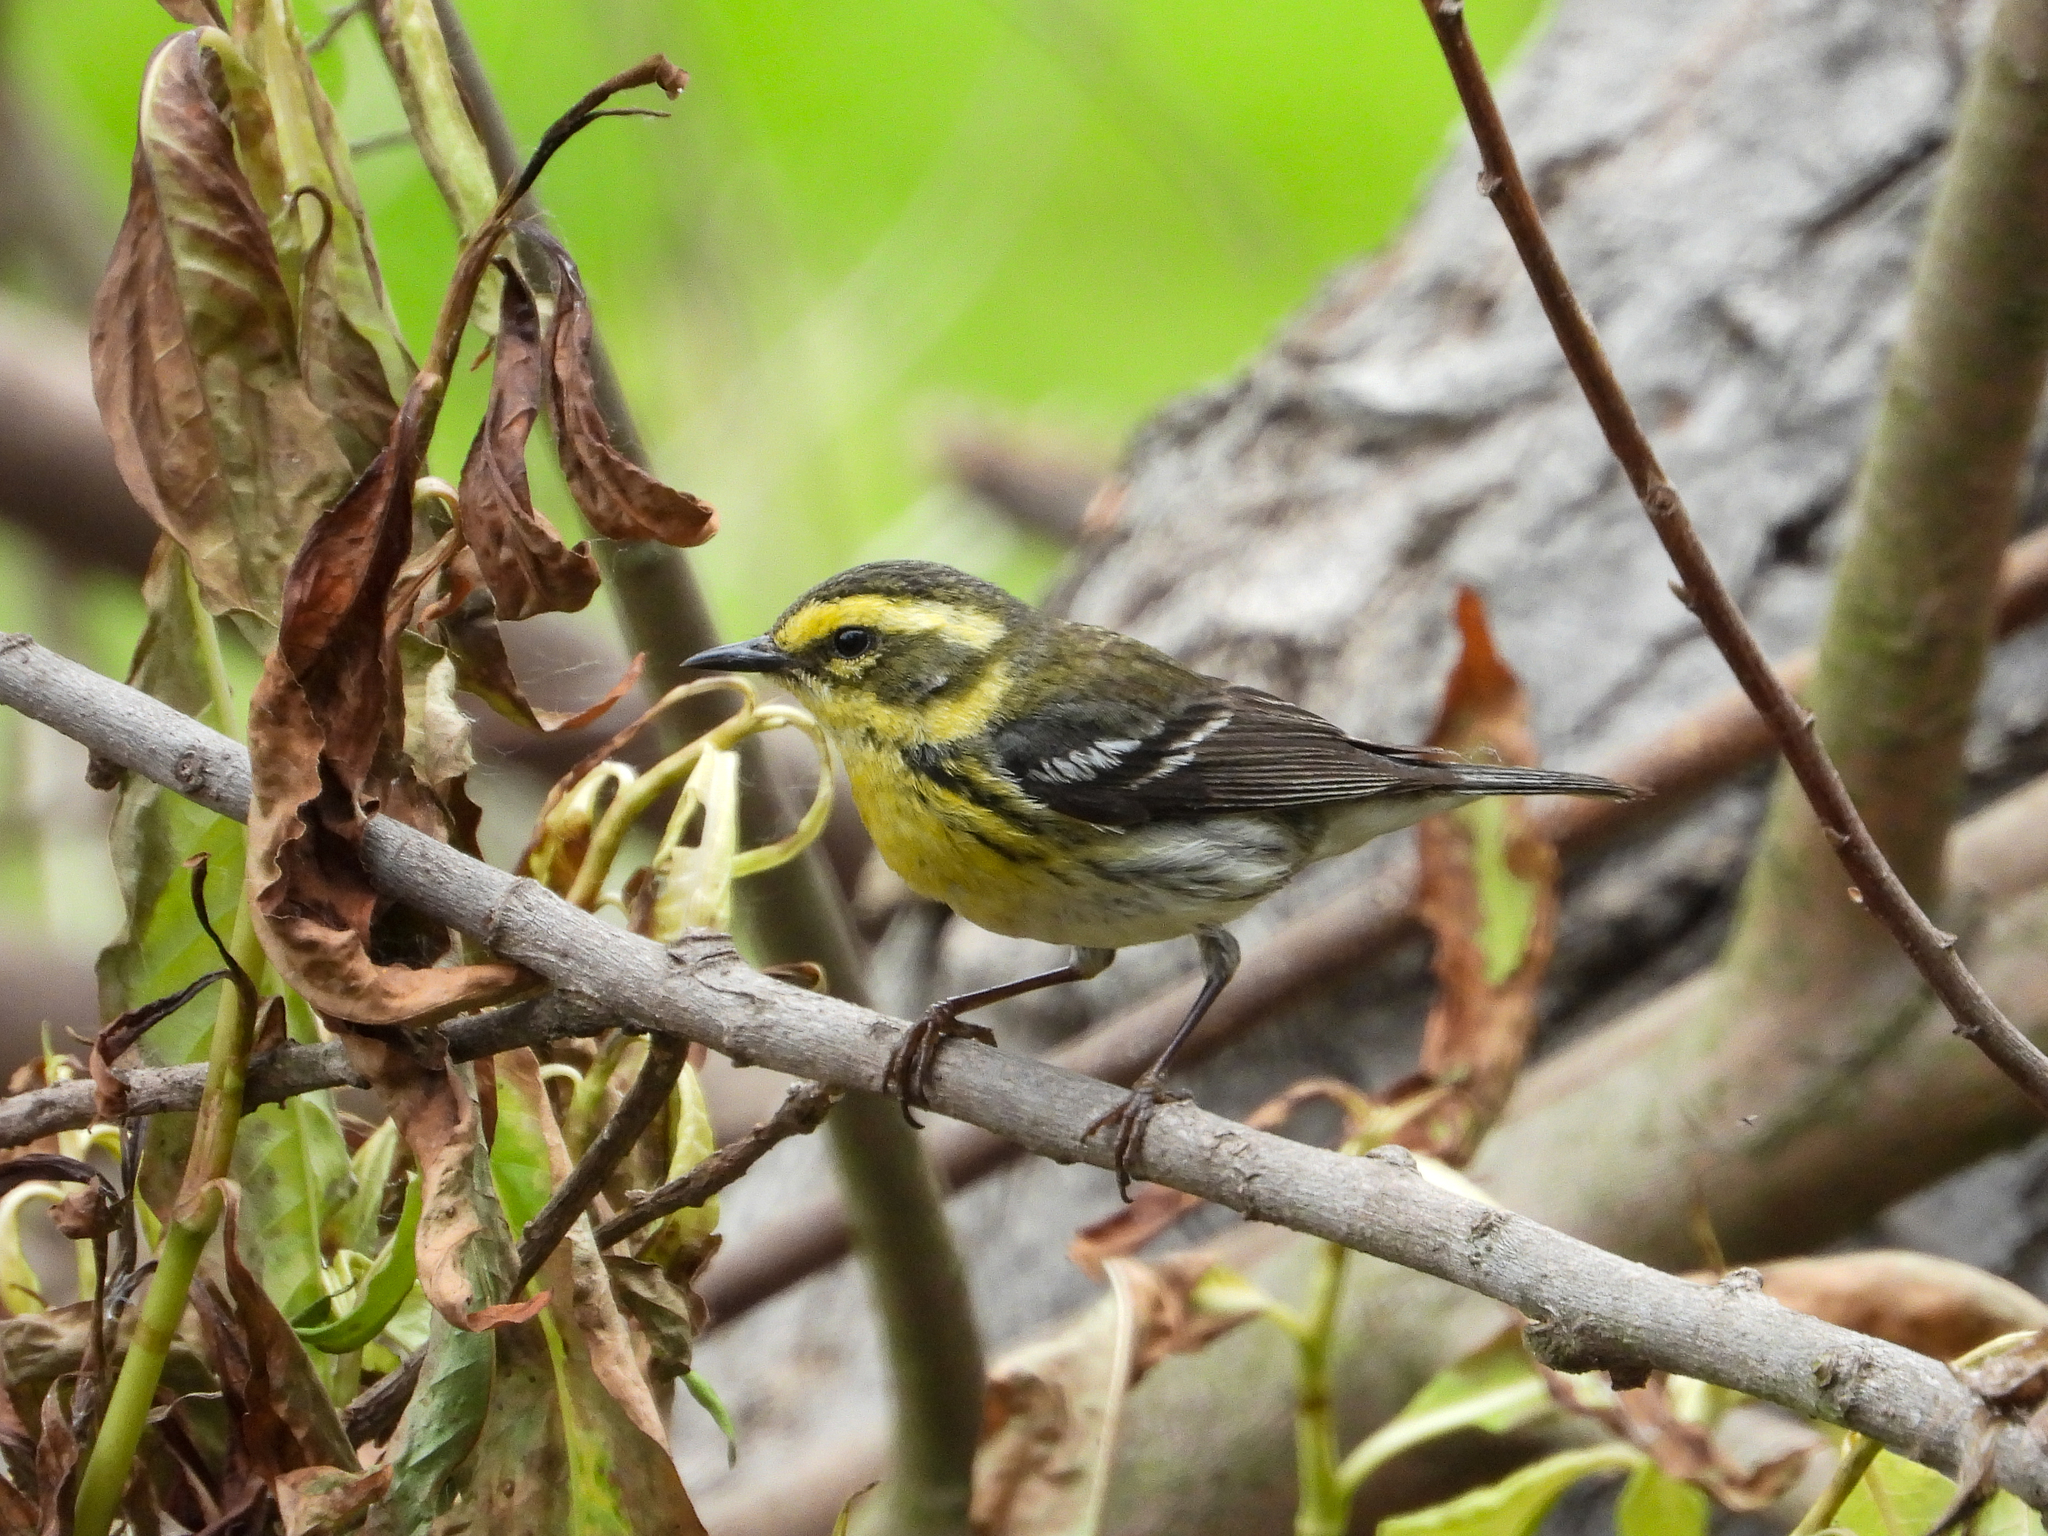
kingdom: Animalia
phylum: Chordata
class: Aves
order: Passeriformes
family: Parulidae
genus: Setophaga
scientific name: Setophaga townsendi
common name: Townsend's warbler
